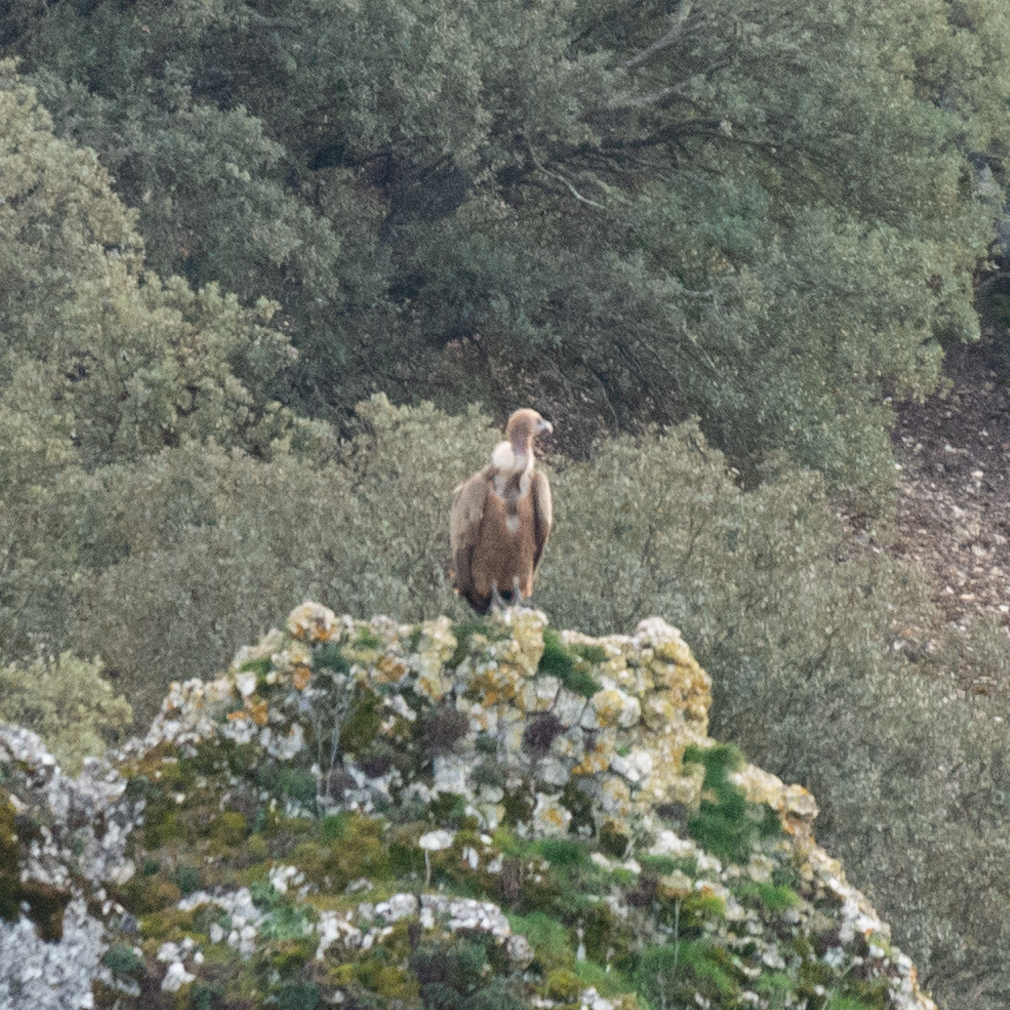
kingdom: Animalia
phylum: Chordata
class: Aves
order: Accipitriformes
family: Accipitridae
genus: Gyps
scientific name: Gyps fulvus
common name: Griffon vulture
